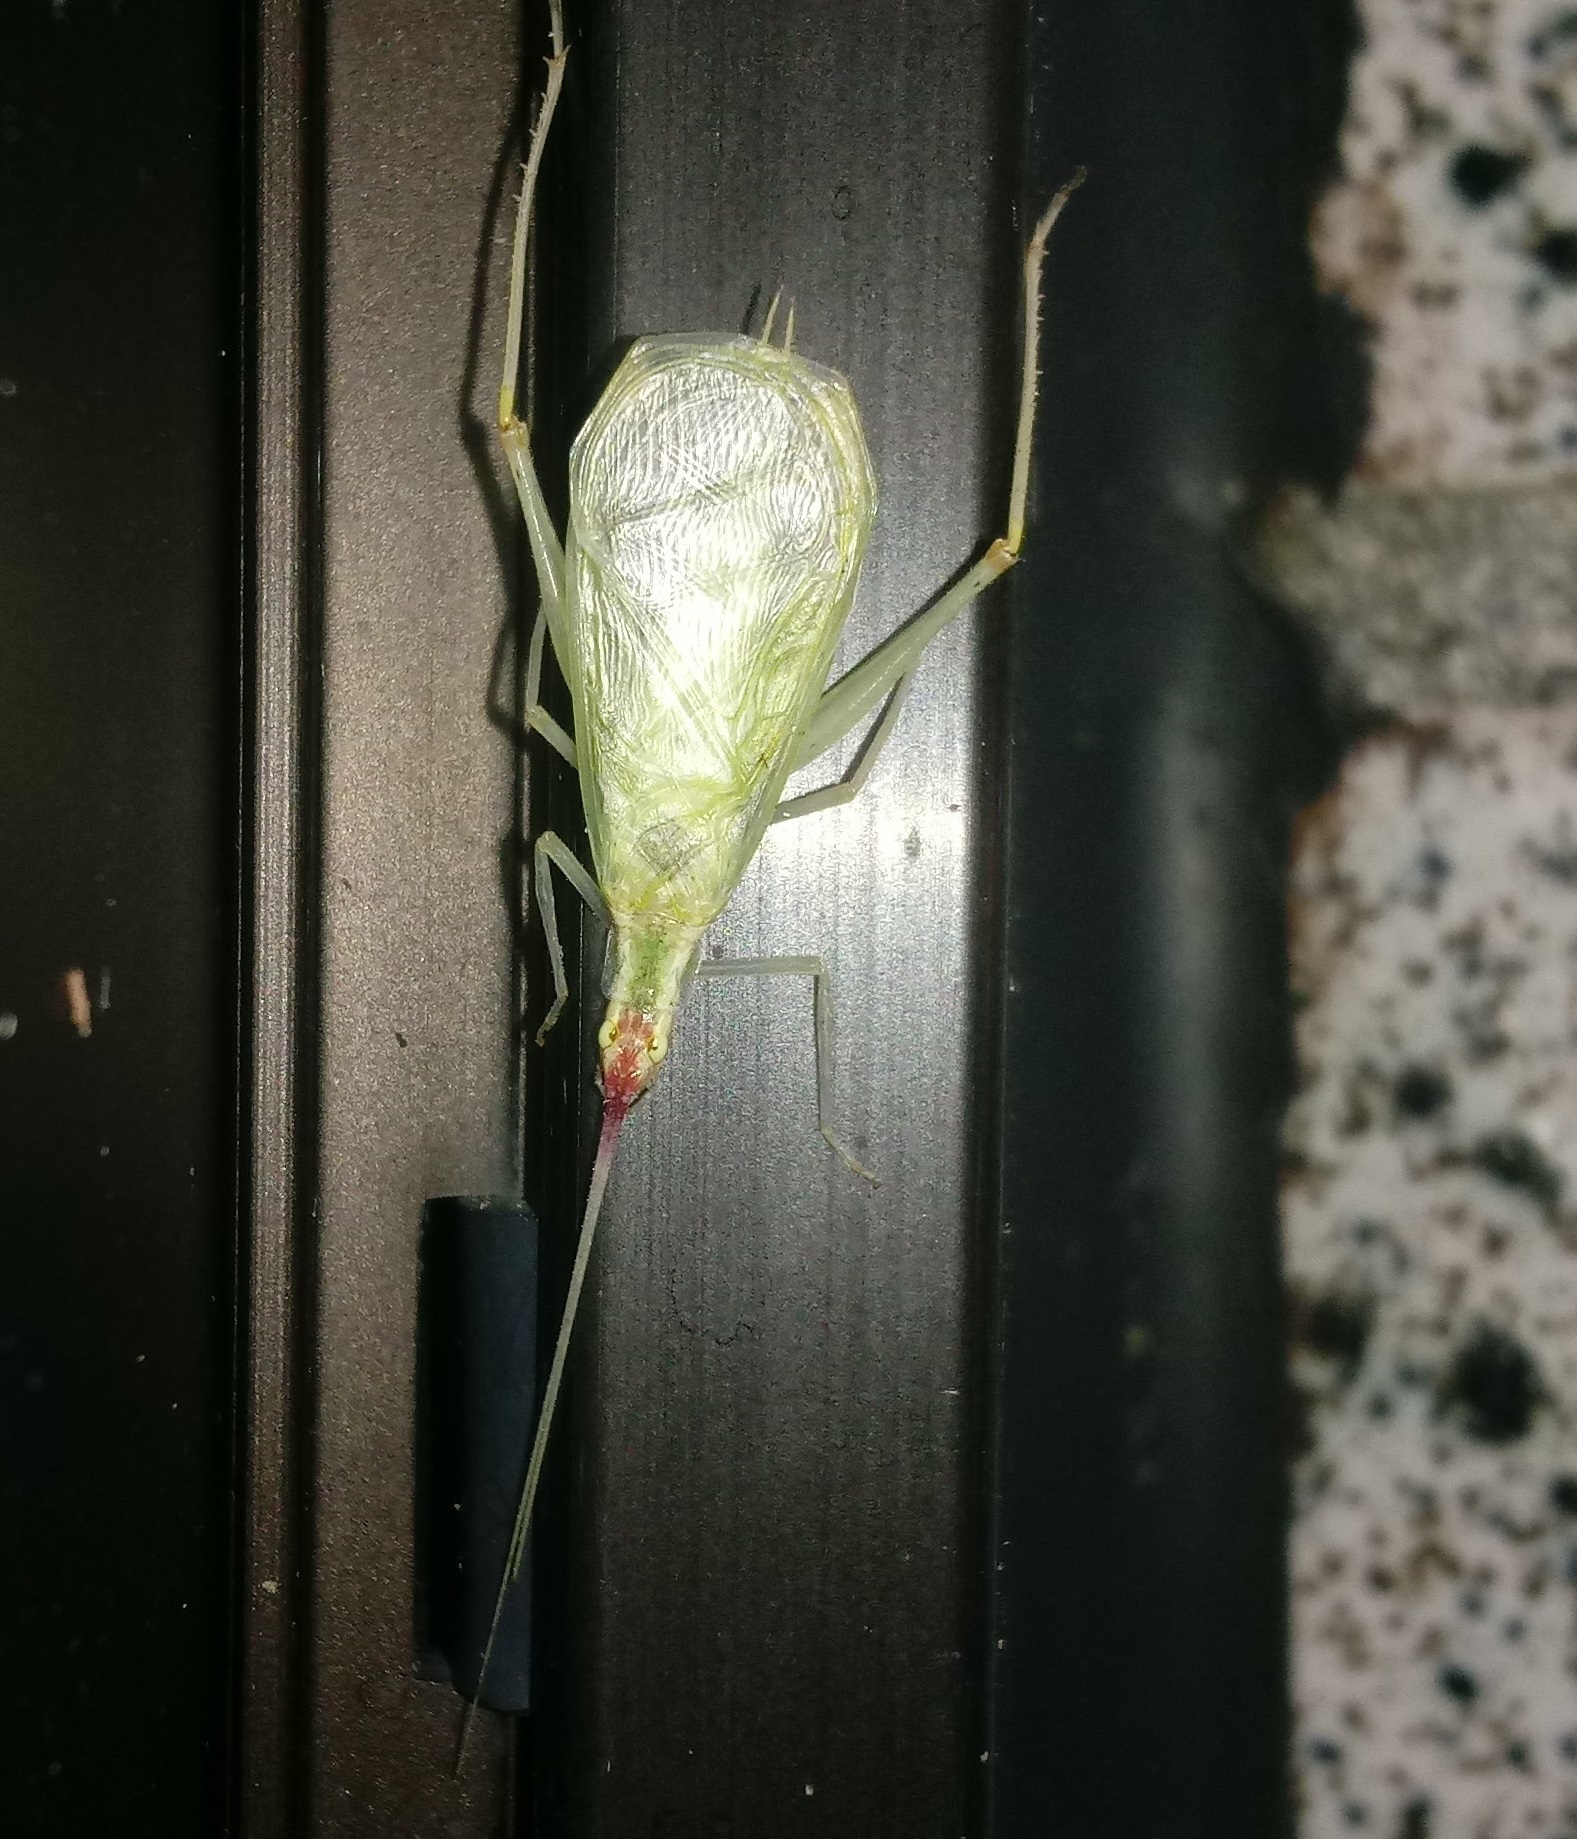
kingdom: Animalia
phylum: Arthropoda
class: Insecta
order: Orthoptera
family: Gryllidae
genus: Oecanthus
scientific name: Oecanthus latipennis
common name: Broad-winged tree cricket
